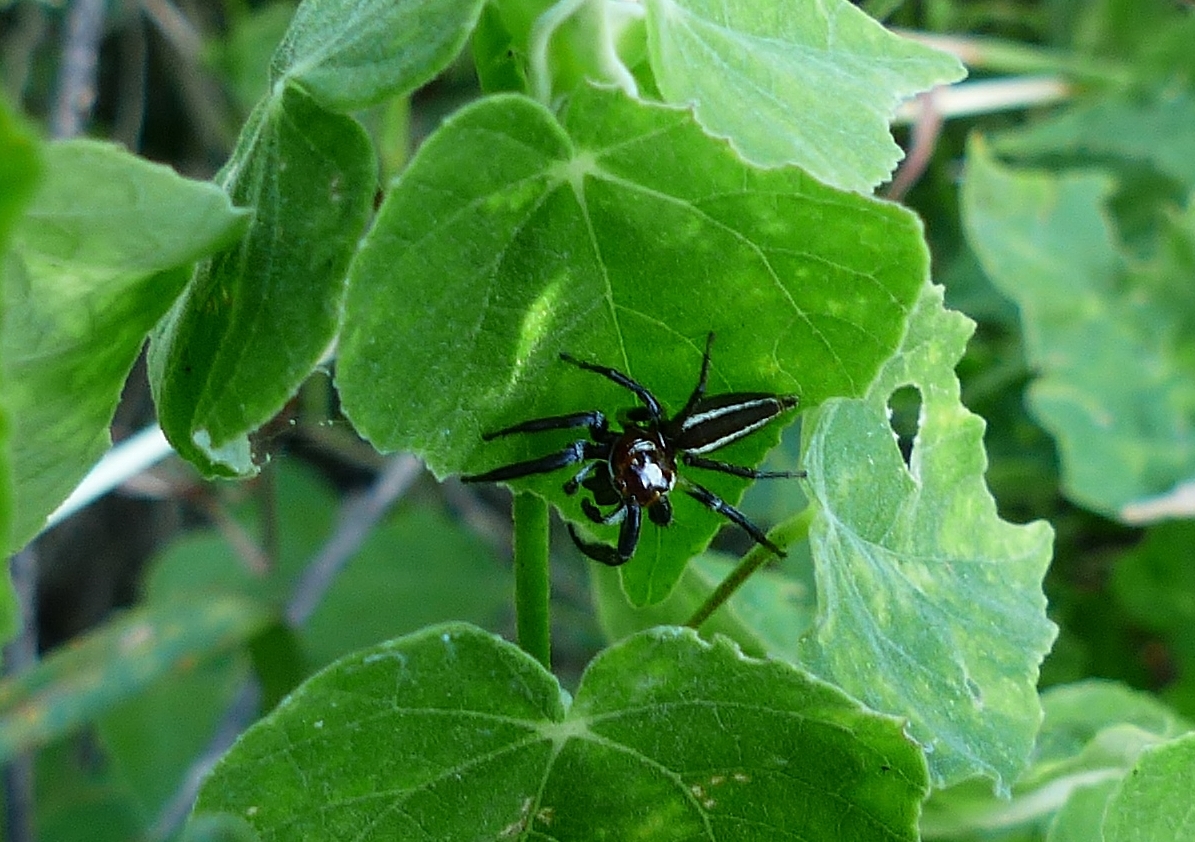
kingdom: Animalia
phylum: Arthropoda
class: Arachnida
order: Araneae
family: Salticidae
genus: Colonus
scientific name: Colonus sylvanus
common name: Jumping spiders
